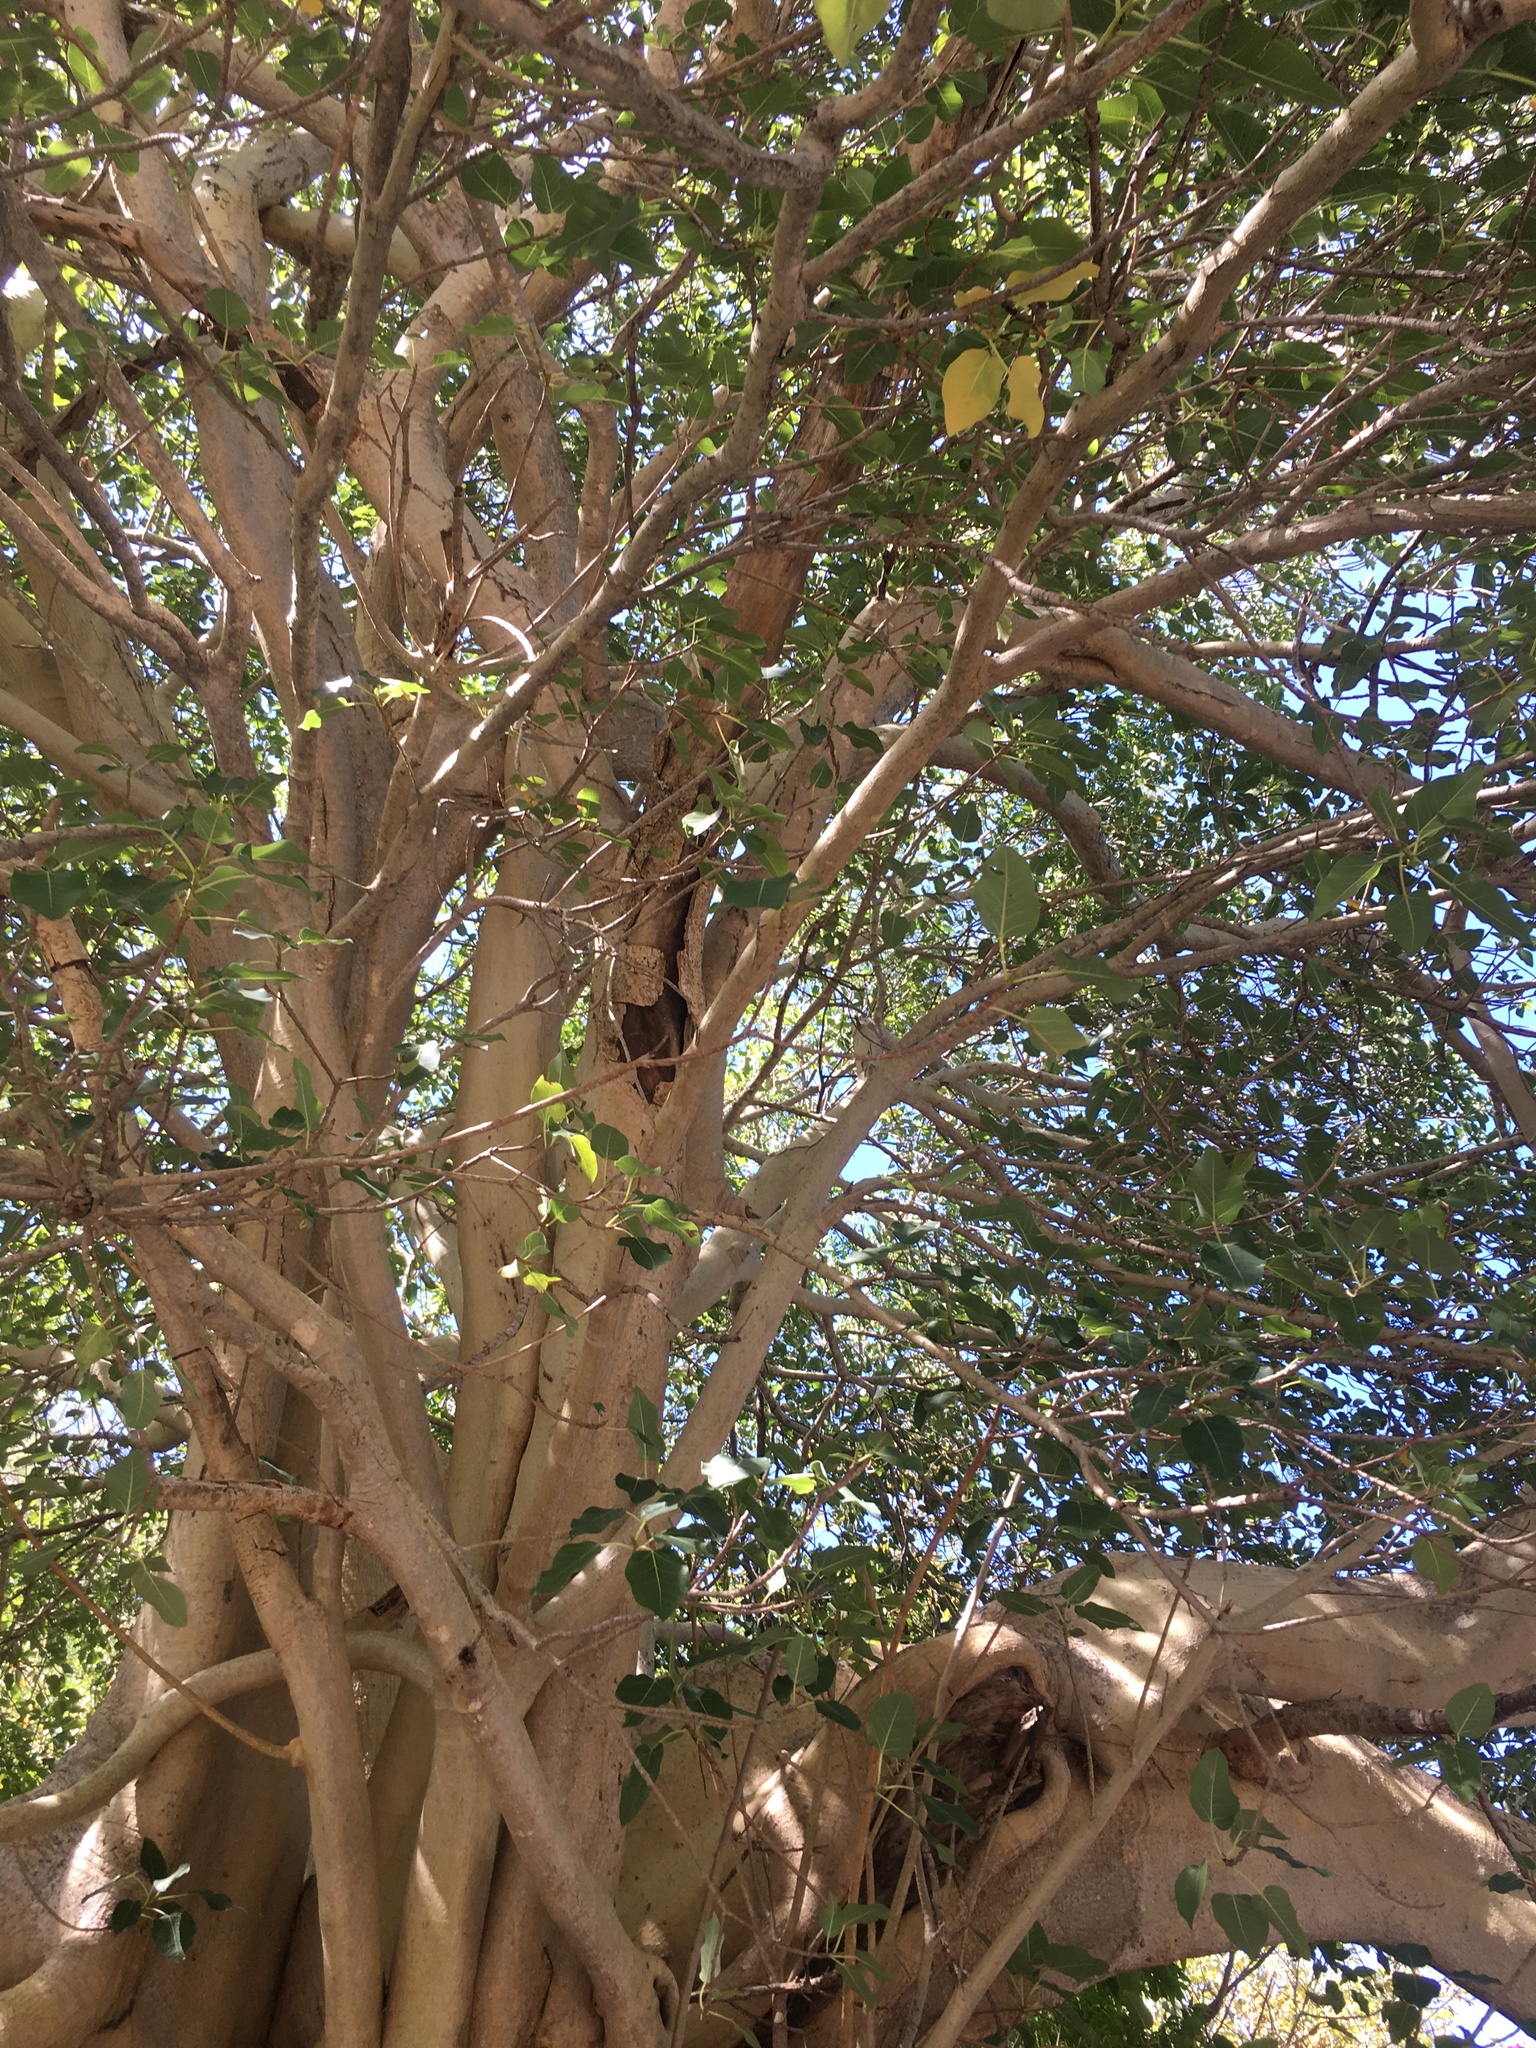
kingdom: Plantae
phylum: Tracheophyta
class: Magnoliopsida
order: Rosales
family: Moraceae
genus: Ficus
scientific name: Ficus petiolaris
